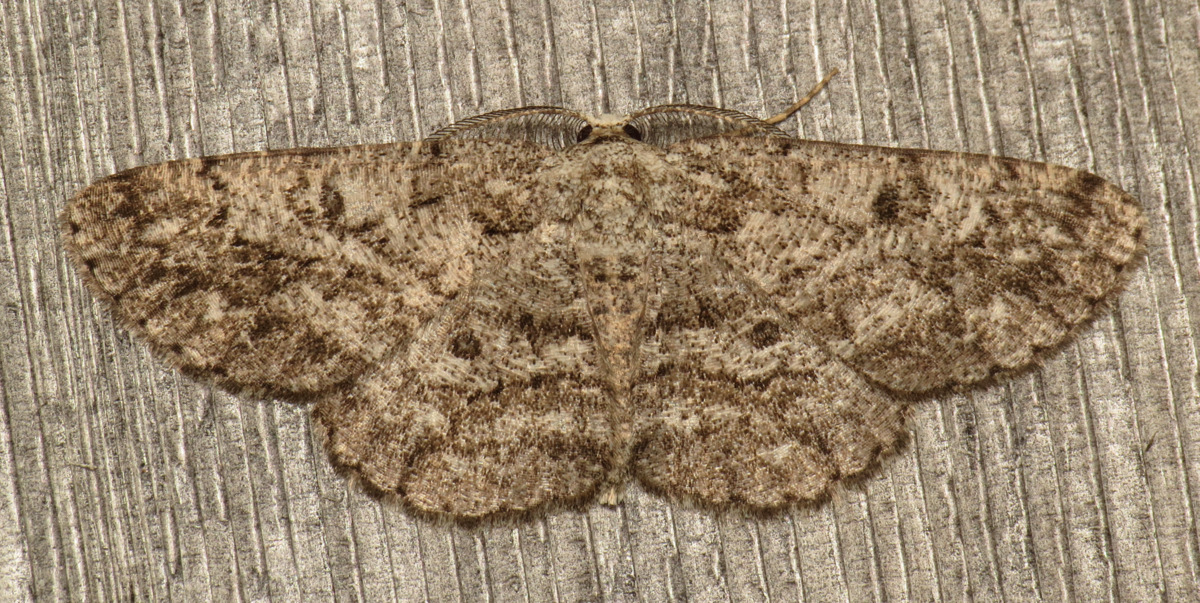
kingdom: Animalia
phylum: Arthropoda
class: Insecta
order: Lepidoptera
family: Geometridae
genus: Hypomecis
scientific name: Hypomecis umbrosaria
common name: Umber moth
